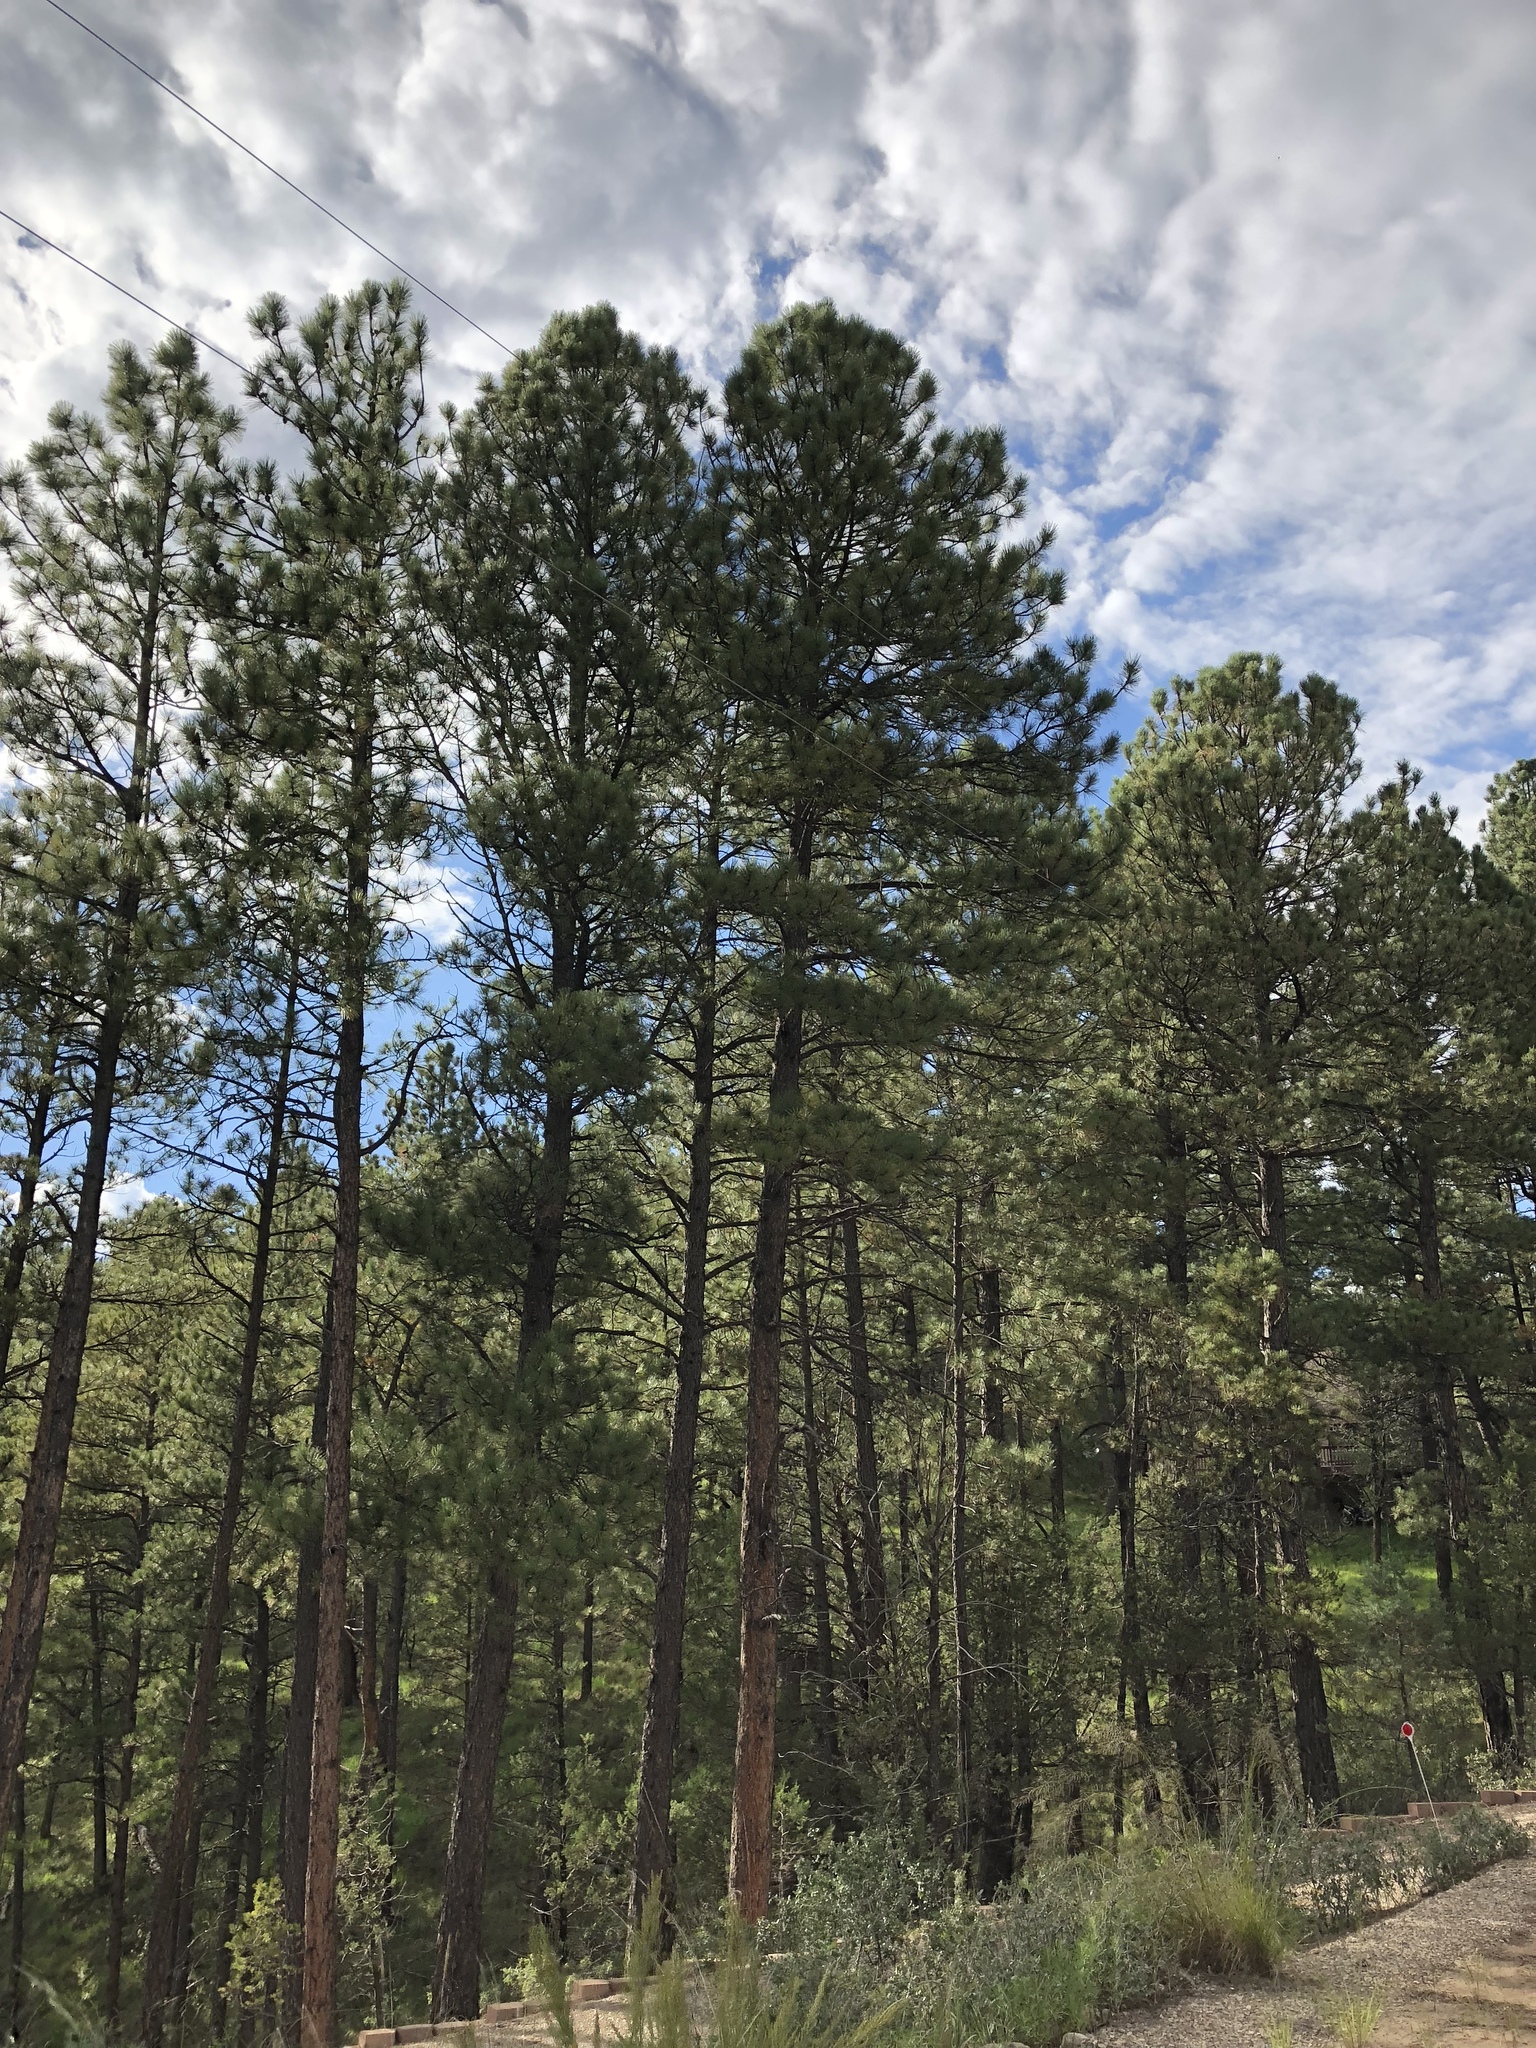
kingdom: Plantae
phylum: Tracheophyta
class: Pinopsida
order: Pinales
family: Pinaceae
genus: Pinus
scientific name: Pinus ponderosa
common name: Western yellow-pine
